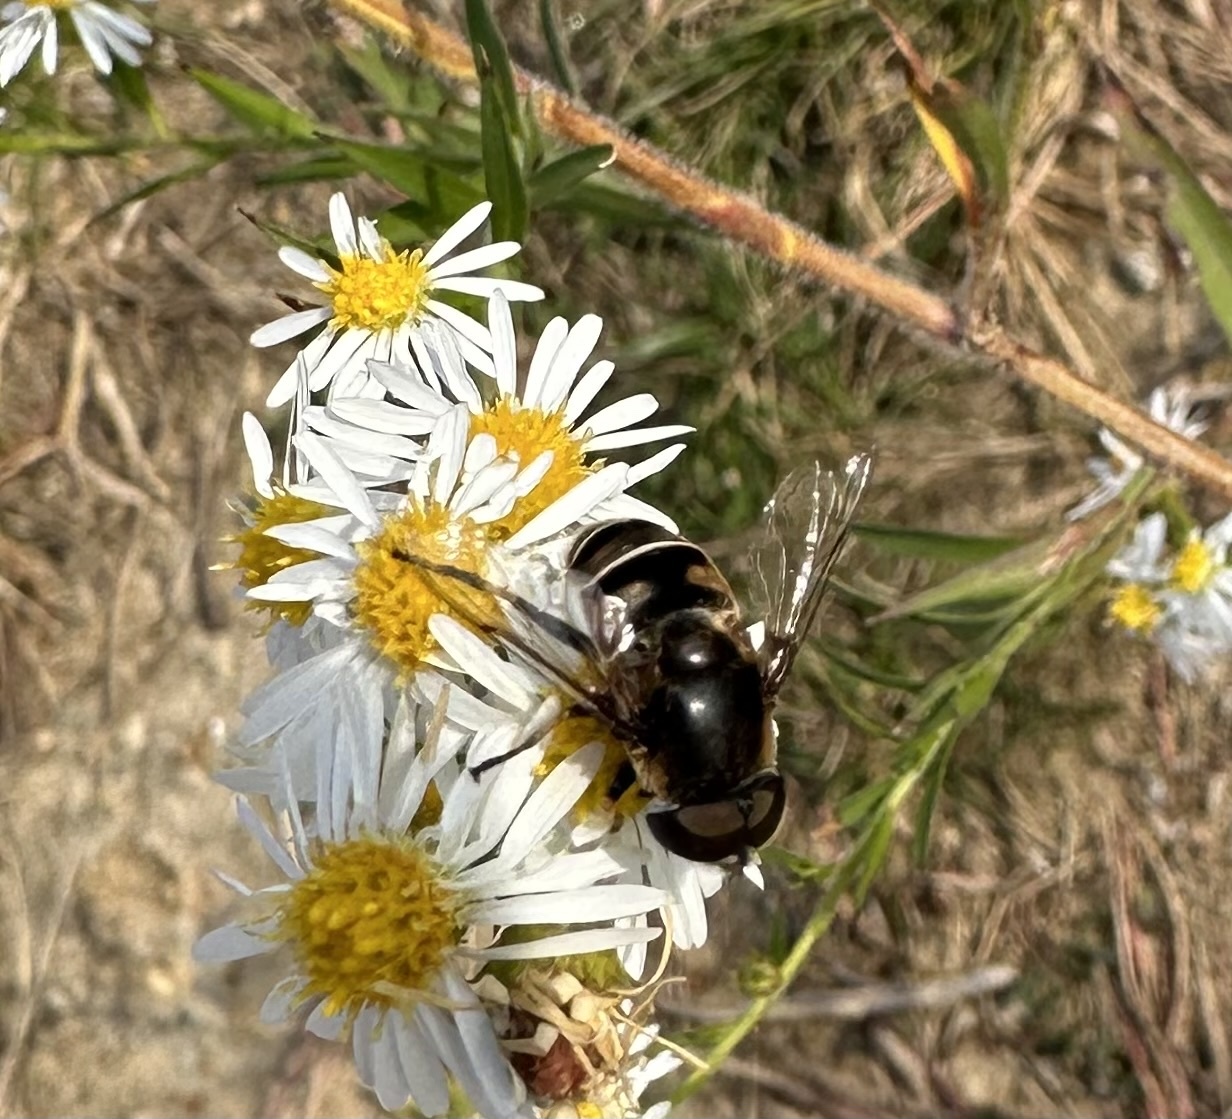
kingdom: Animalia
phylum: Arthropoda
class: Insecta
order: Diptera
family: Syrphidae
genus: Eristalis
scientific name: Eristalis dimidiata
